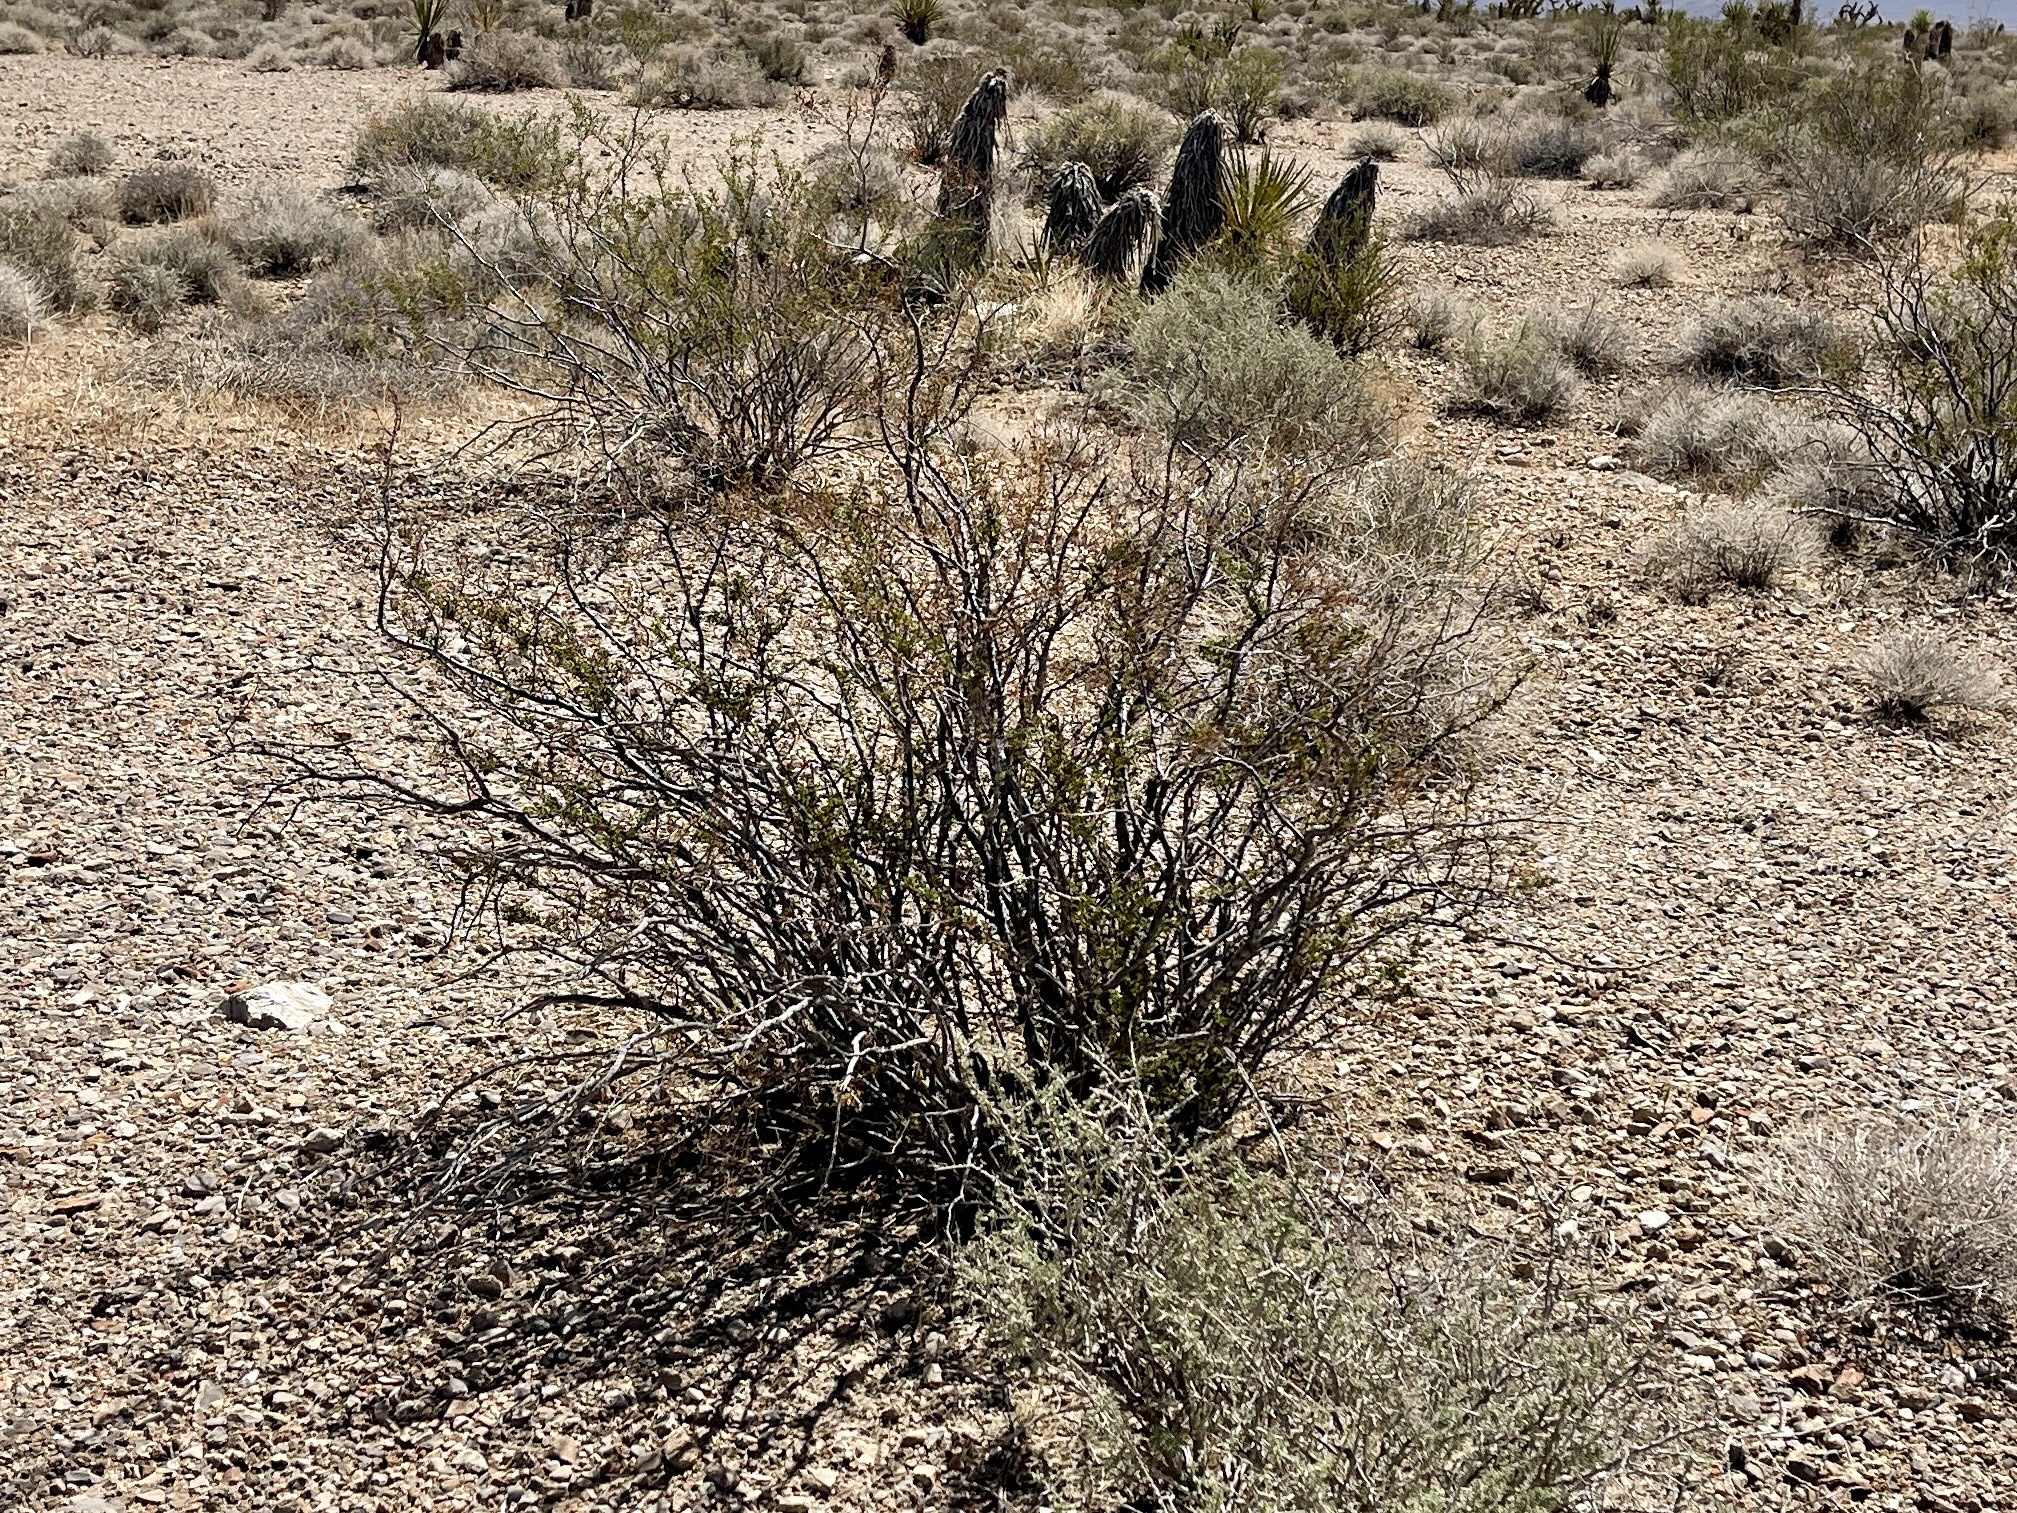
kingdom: Plantae
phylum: Tracheophyta
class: Magnoliopsida
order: Zygophyllales
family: Zygophyllaceae
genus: Larrea
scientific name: Larrea tridentata
